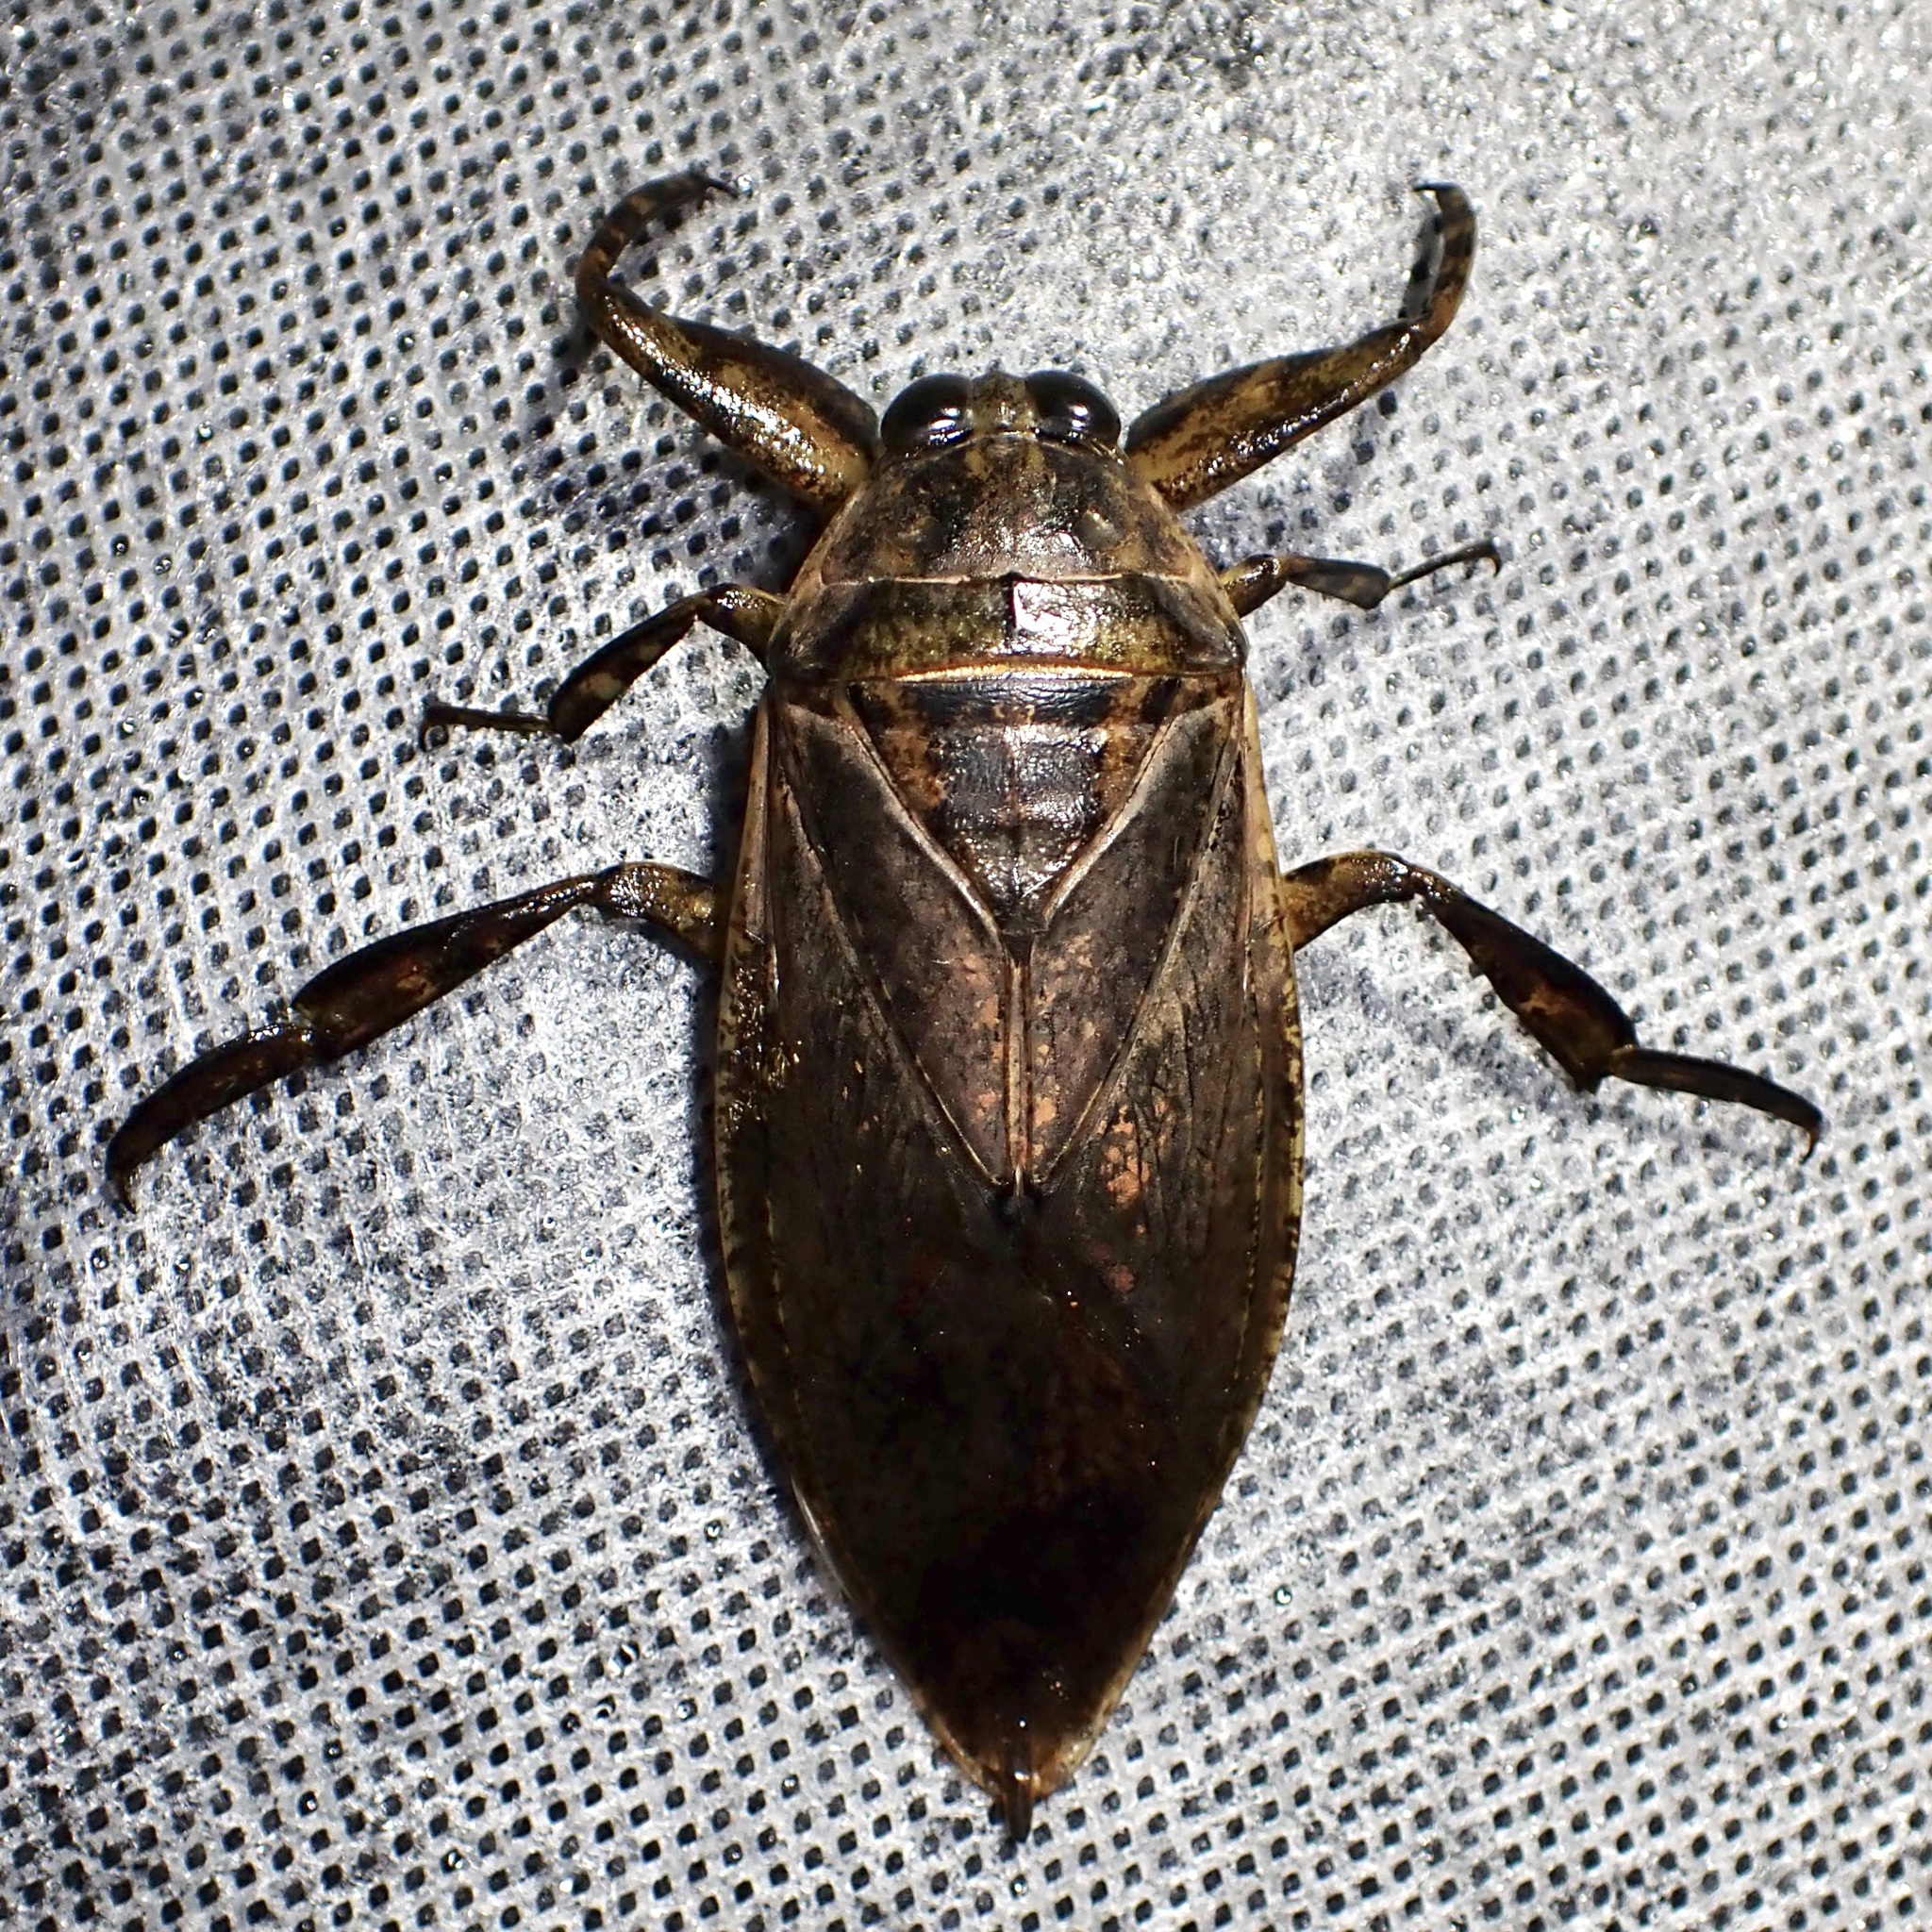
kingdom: Animalia
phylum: Arthropoda
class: Insecta
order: Hemiptera
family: Belostomatidae
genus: Lethocerus
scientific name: Lethocerus medius
